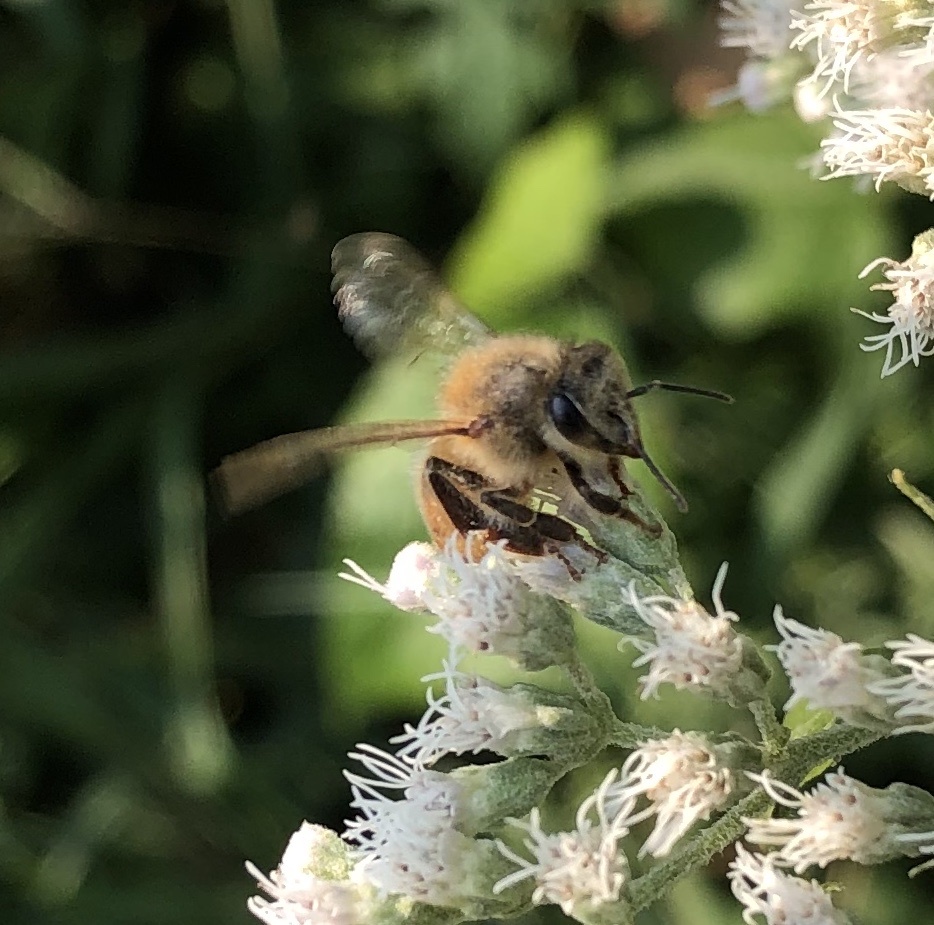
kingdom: Animalia
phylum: Arthropoda
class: Insecta
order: Hymenoptera
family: Apidae
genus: Apis
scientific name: Apis mellifera
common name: Honey bee
